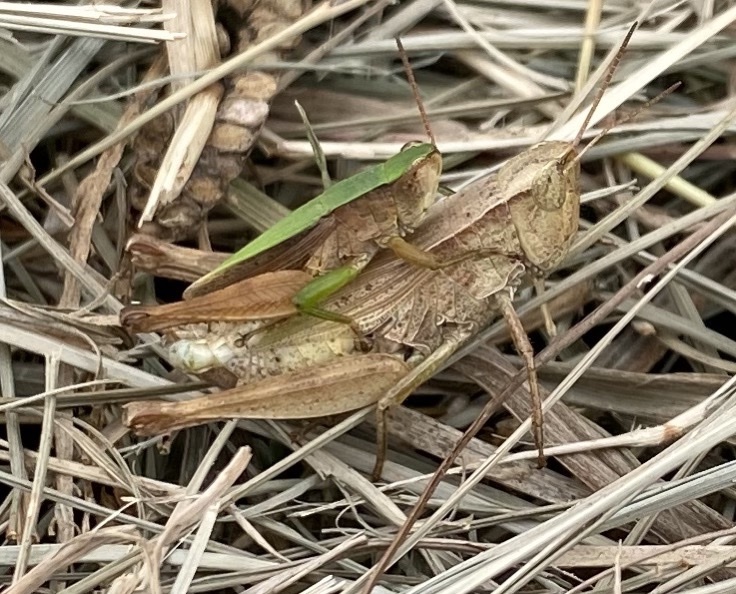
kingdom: Animalia
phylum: Arthropoda
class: Insecta
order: Orthoptera
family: Acrididae
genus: Dichromorpha
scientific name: Dichromorpha viridis
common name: Short-winged green grasshopper
